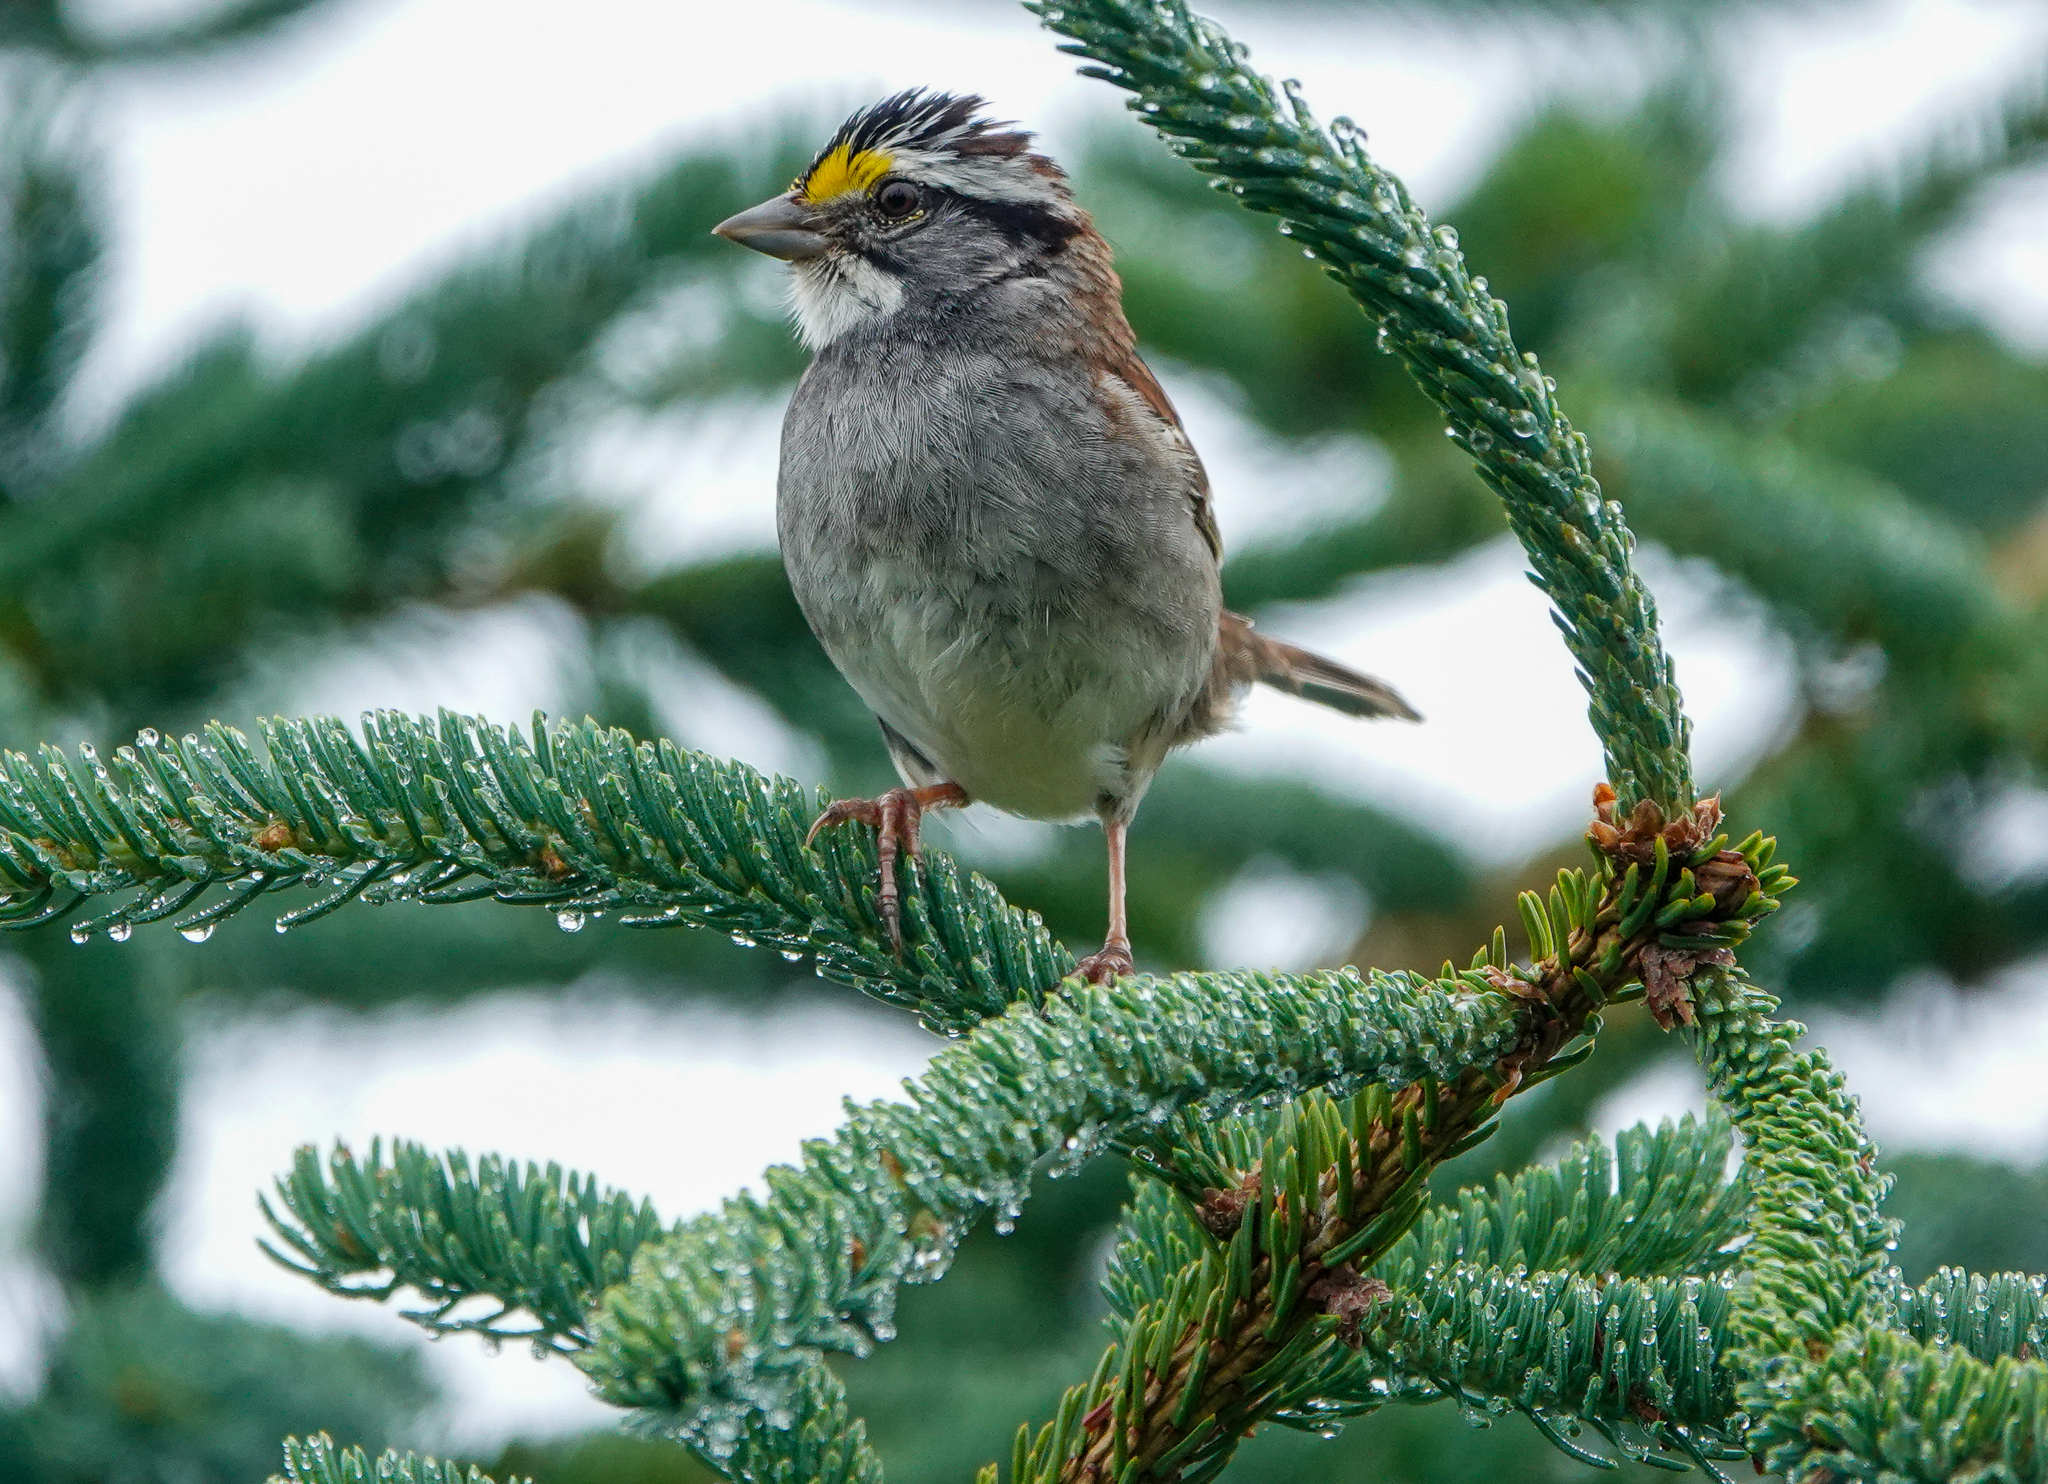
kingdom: Animalia
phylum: Chordata
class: Aves
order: Passeriformes
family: Passerellidae
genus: Zonotrichia
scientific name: Zonotrichia albicollis
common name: White-throated sparrow
